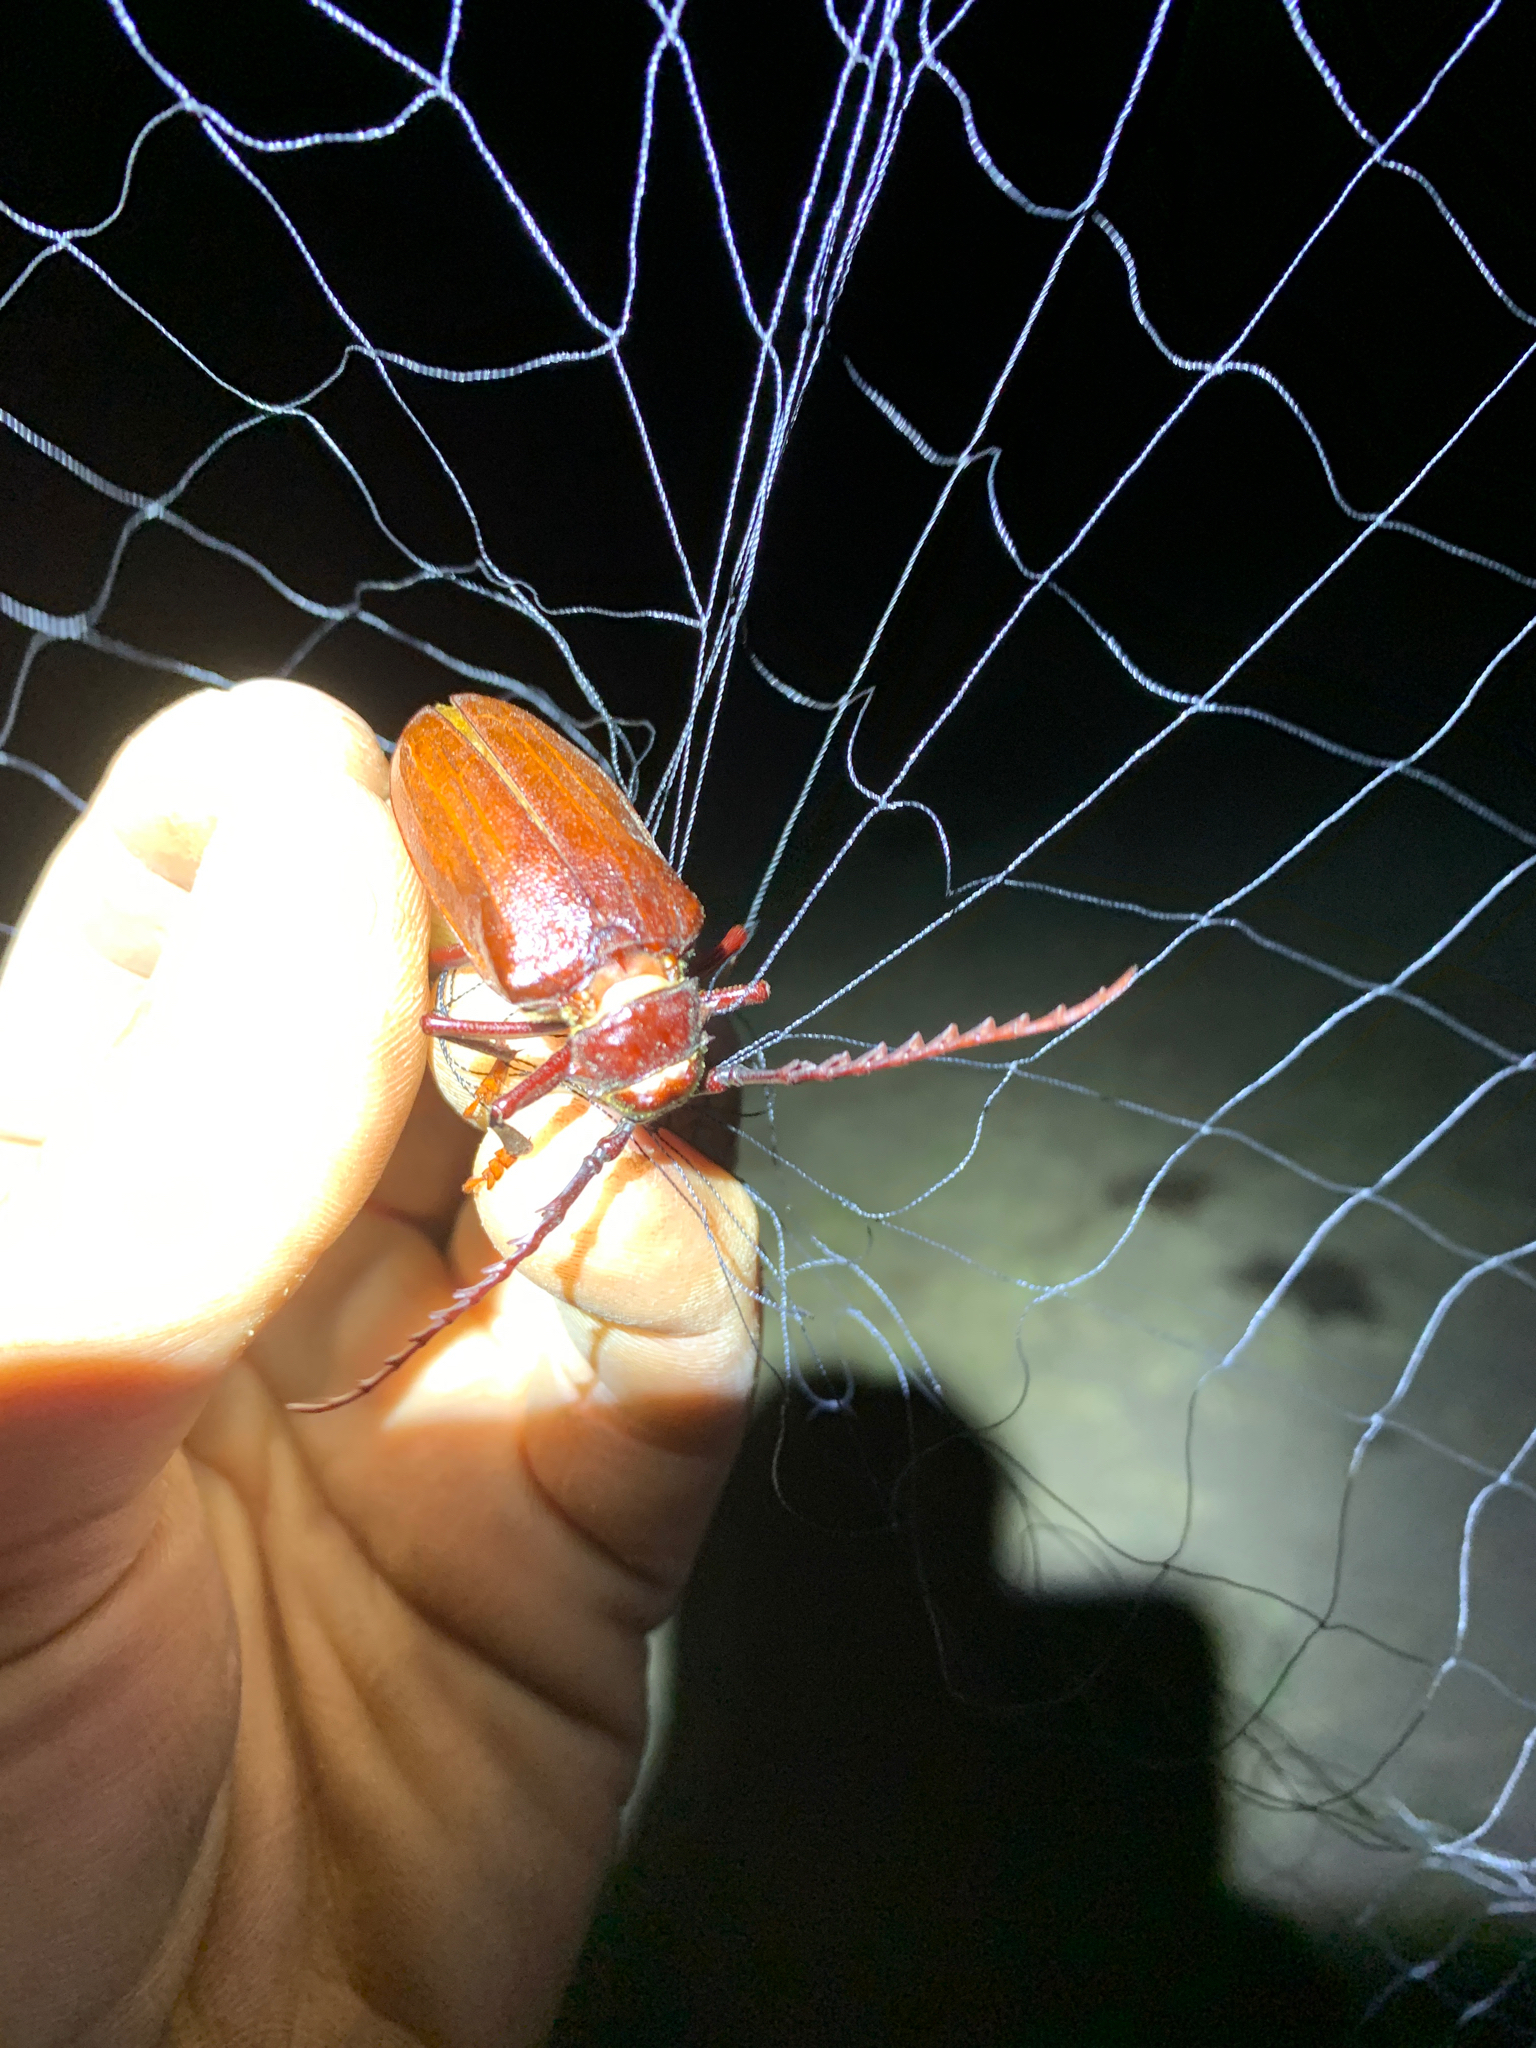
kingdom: Animalia
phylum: Arthropoda
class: Insecta
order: Coleoptera
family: Cerambycidae
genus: Prionus
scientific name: Prionus californicus
